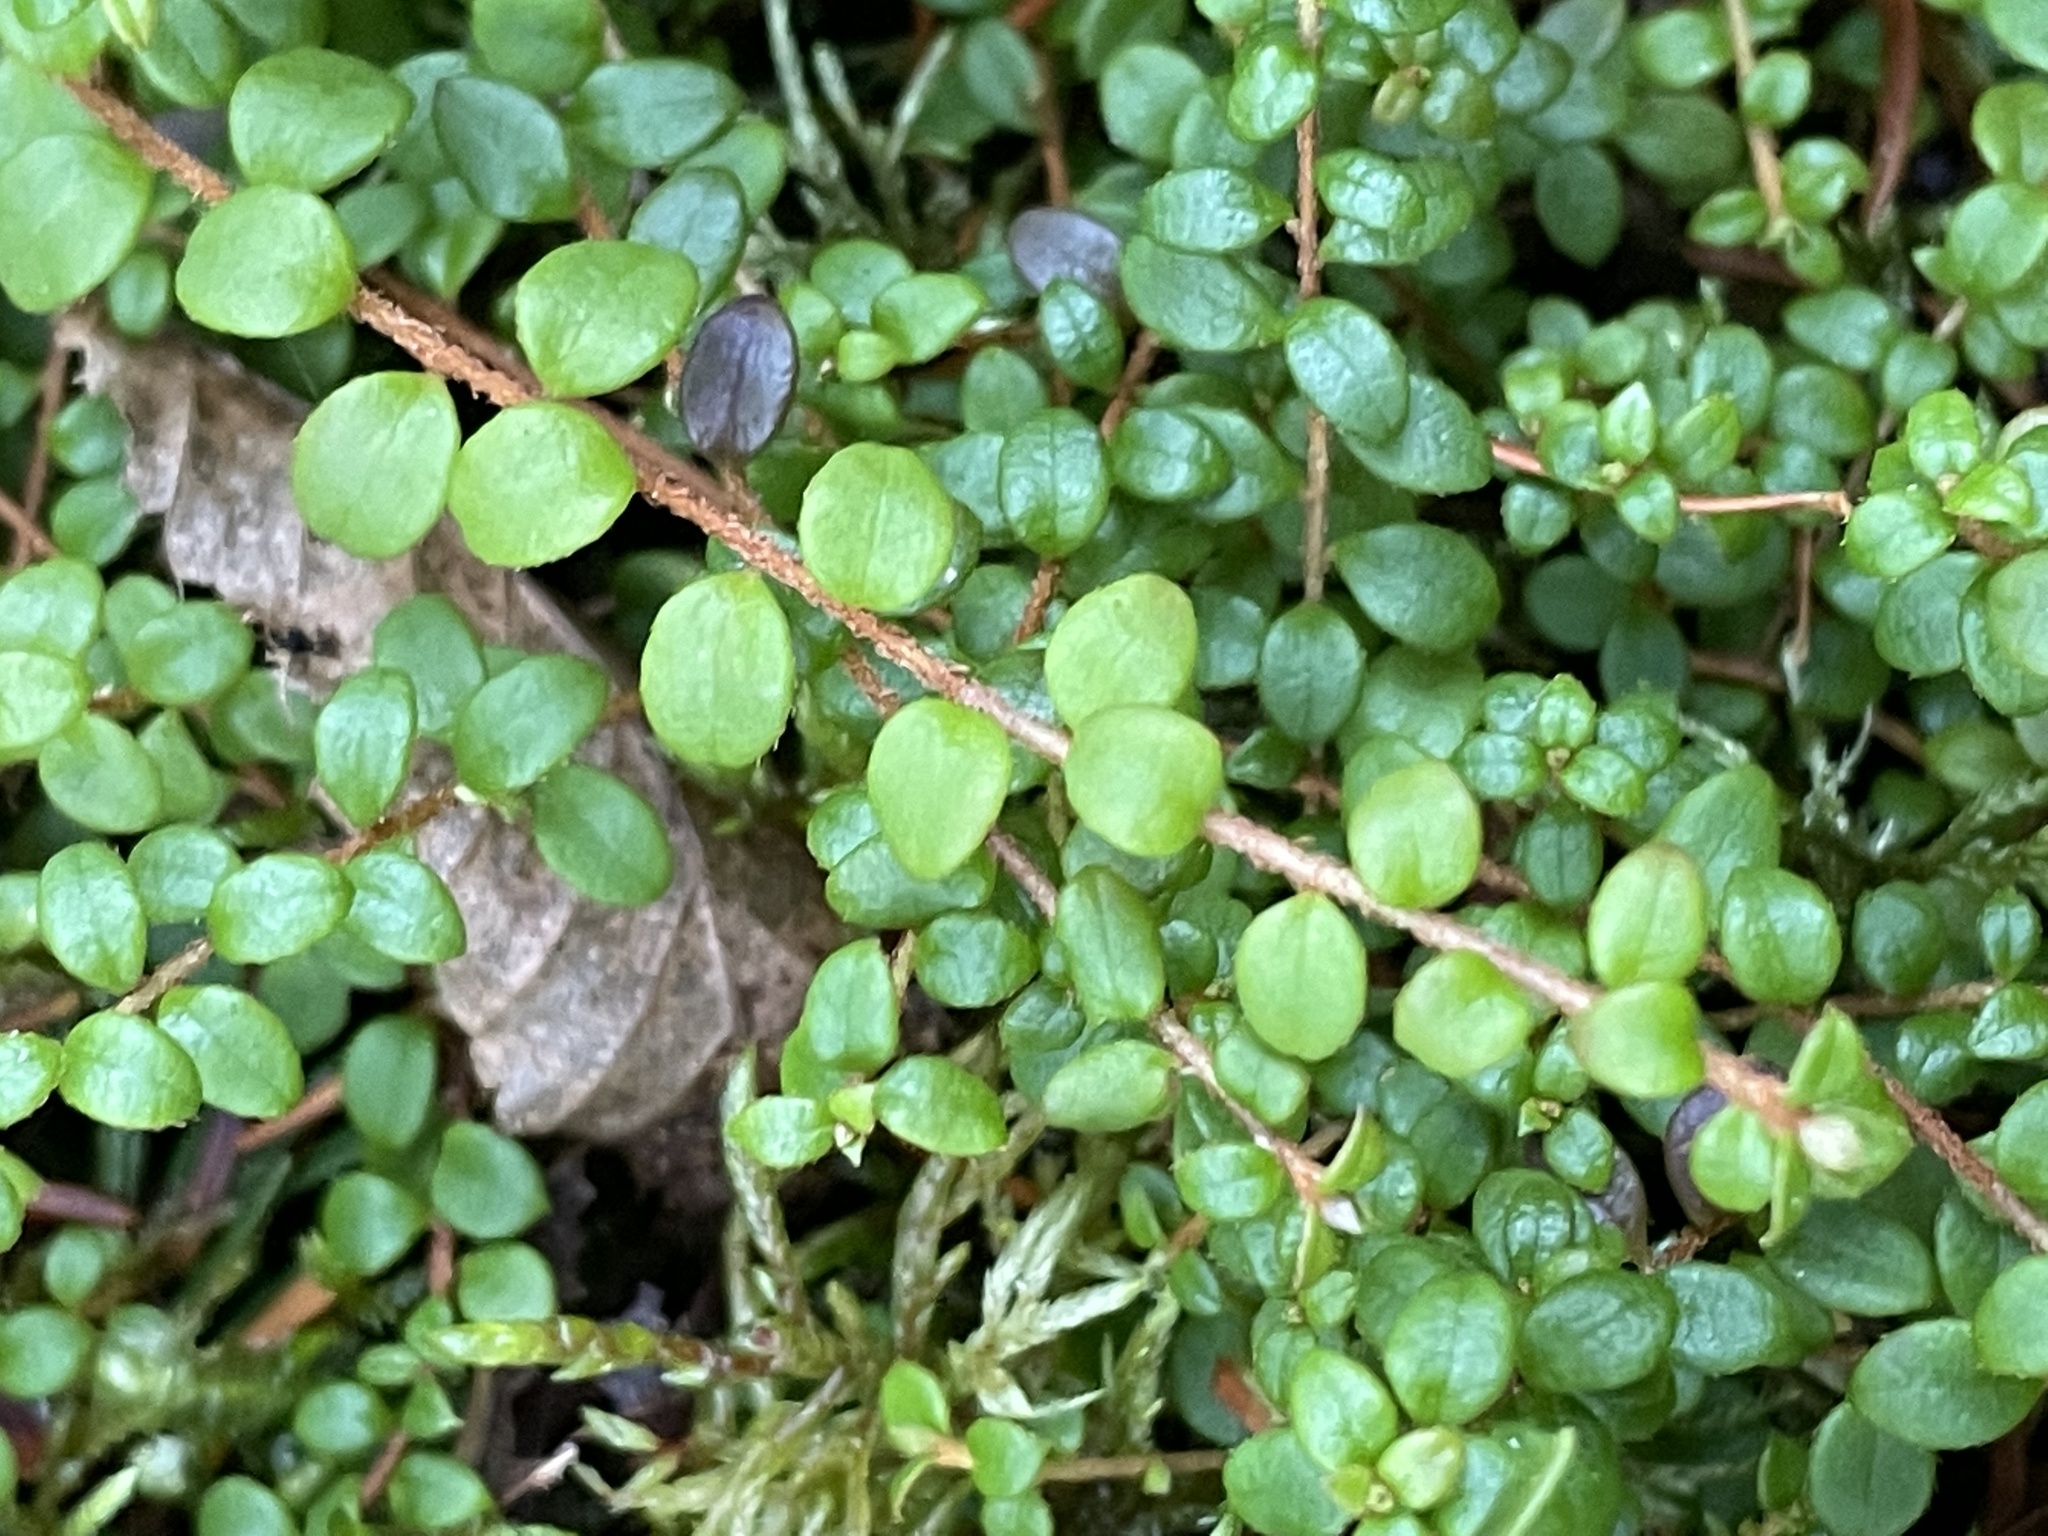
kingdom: Plantae
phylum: Tracheophyta
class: Magnoliopsida
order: Ericales
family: Ericaceae
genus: Gaultheria
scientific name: Gaultheria hispidula
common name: Cancer wintergreen
